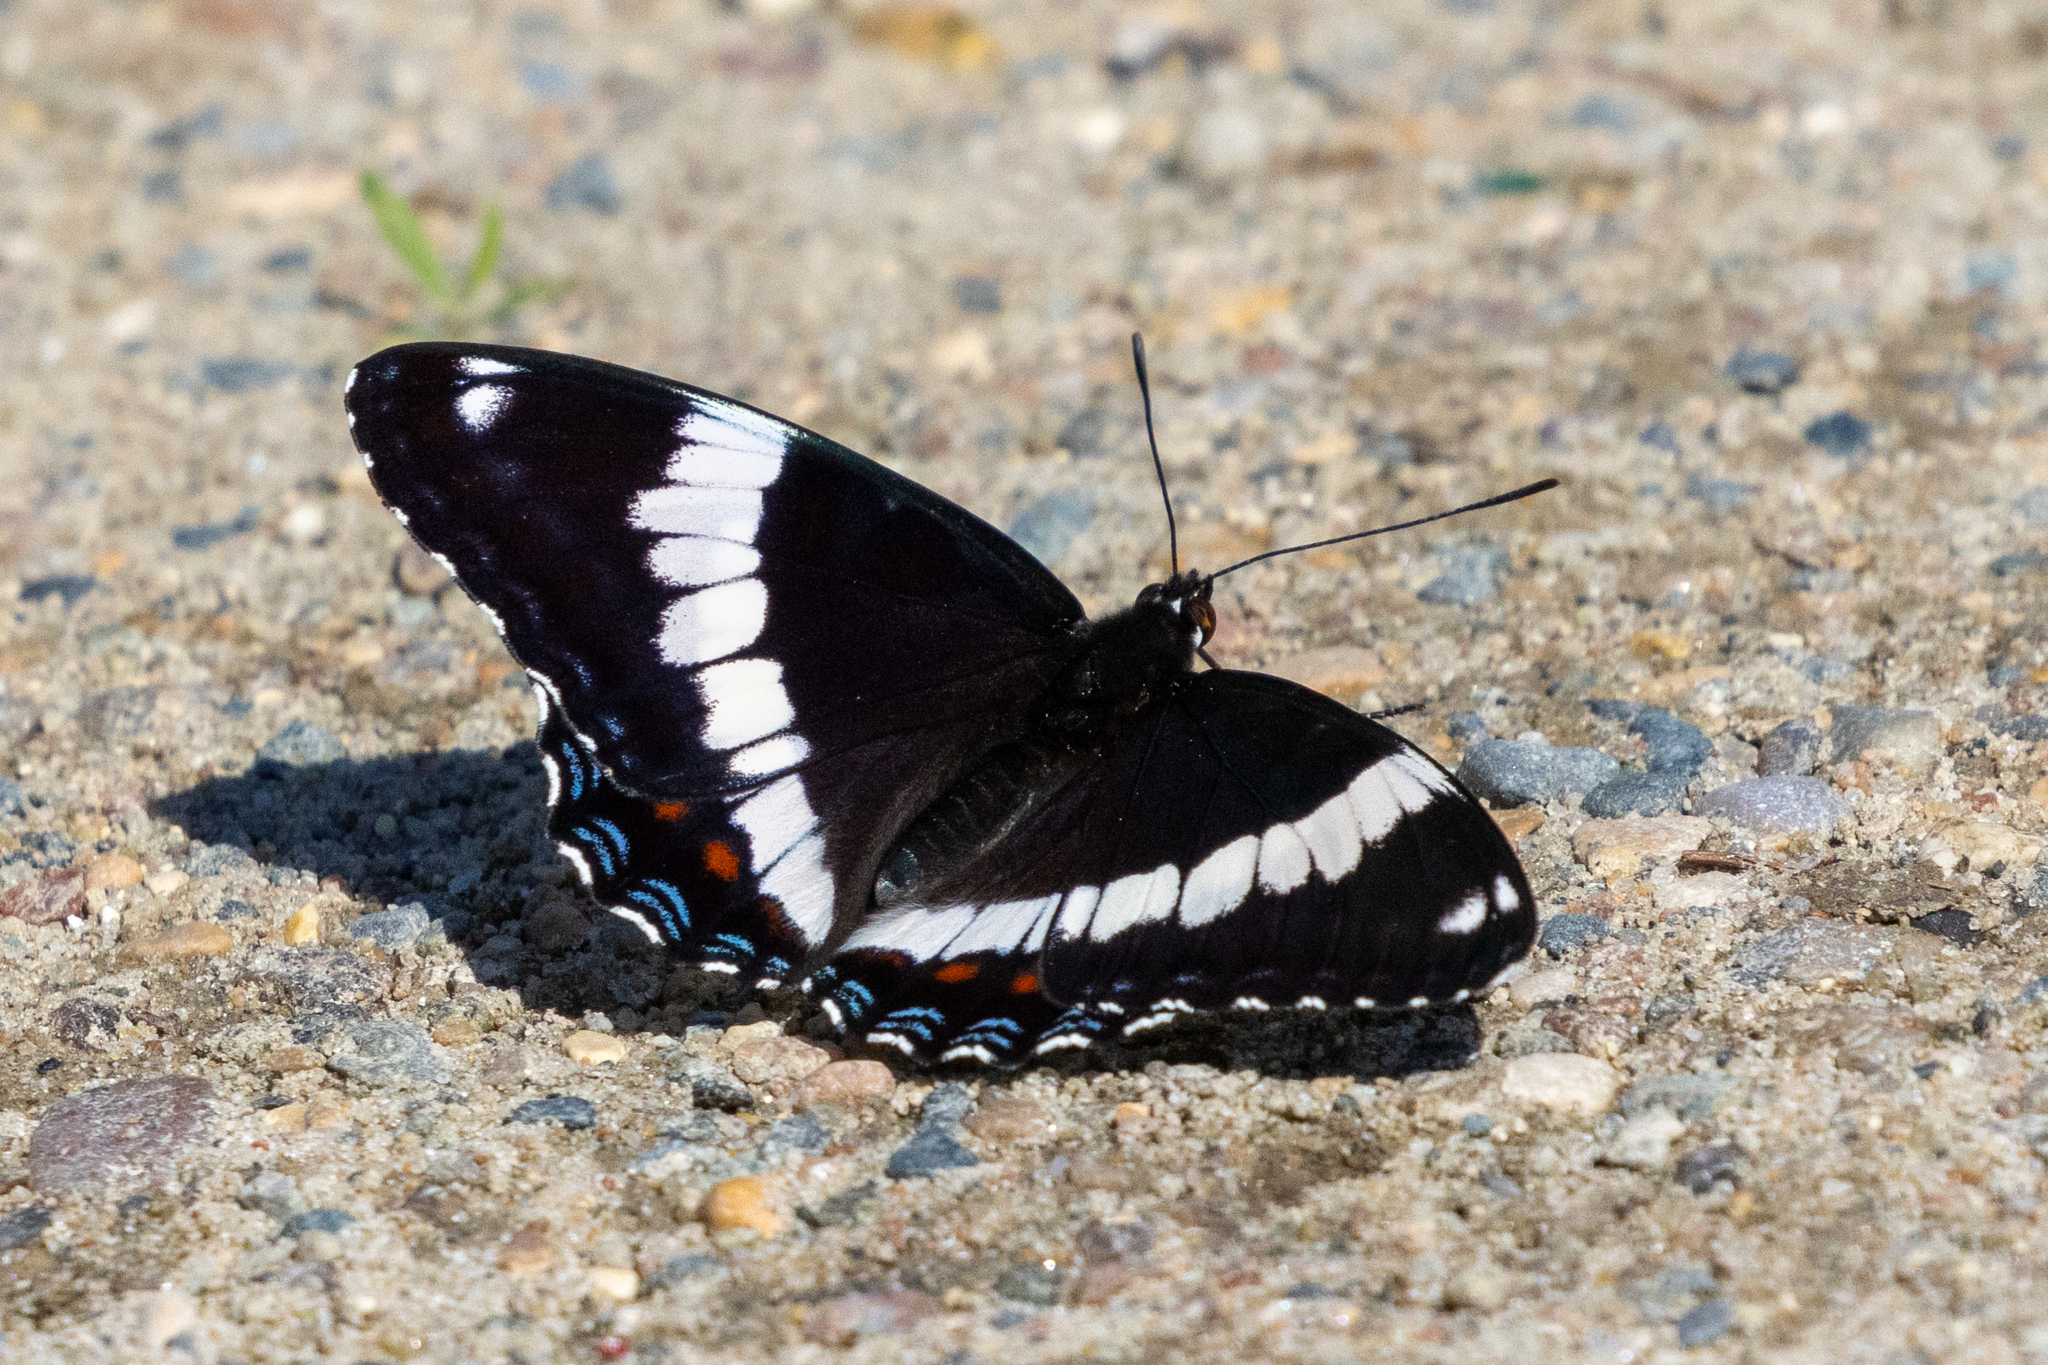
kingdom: Animalia
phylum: Arthropoda
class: Insecta
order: Lepidoptera
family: Nymphalidae
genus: Limenitis
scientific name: Limenitis arthemis
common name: Red-spotted admiral
